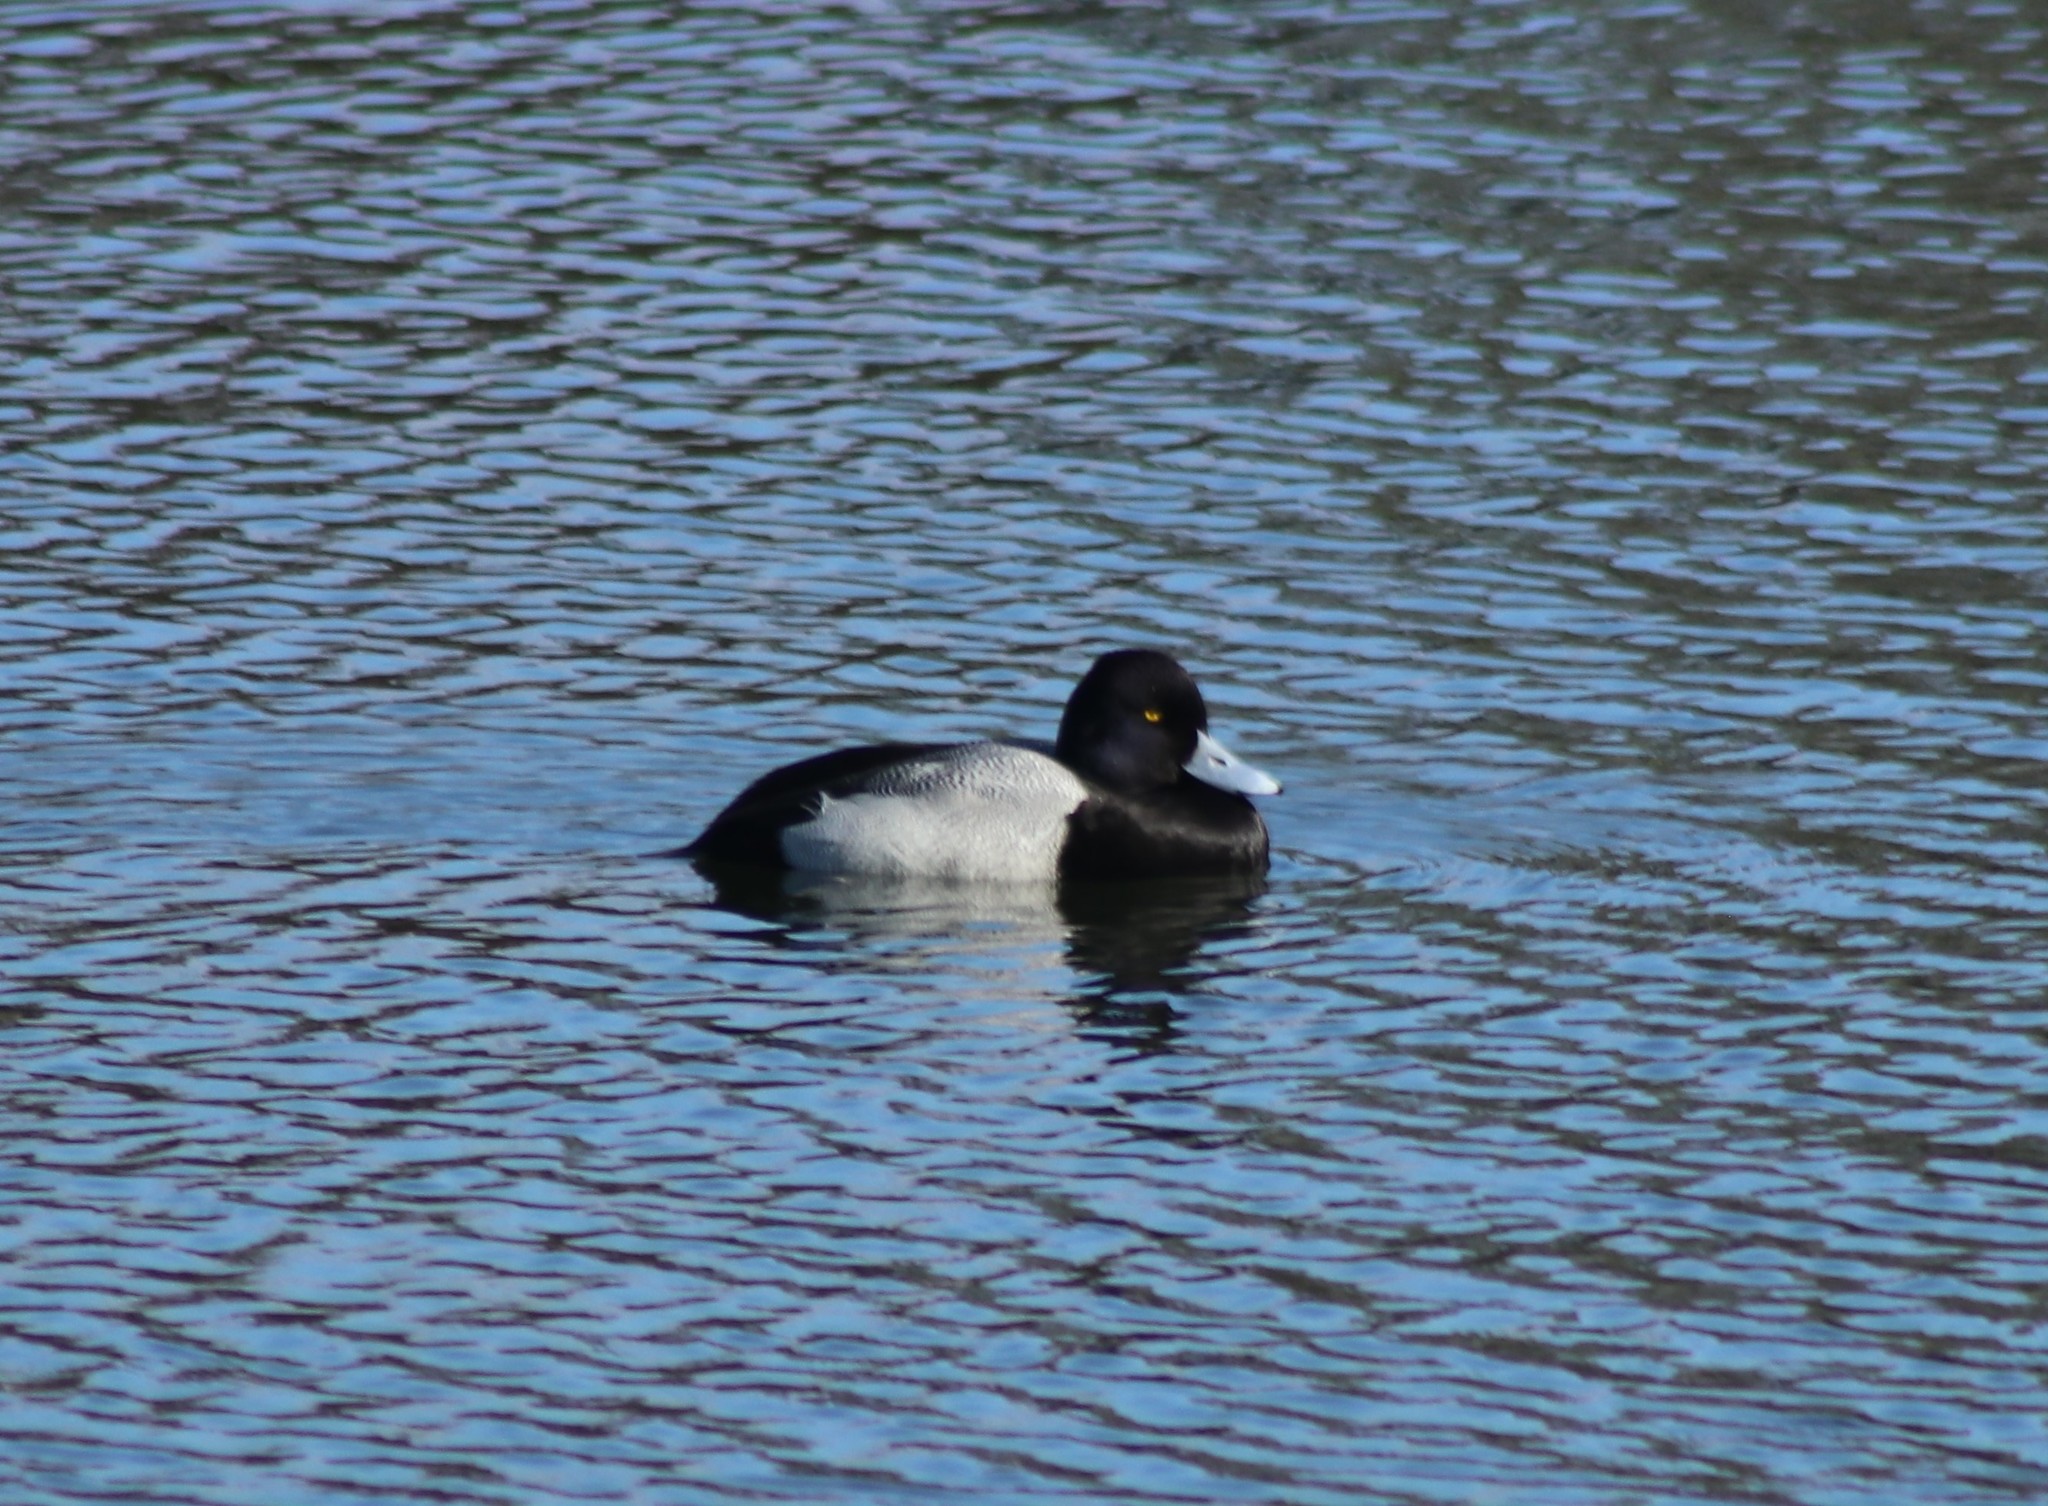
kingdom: Animalia
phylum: Chordata
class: Aves
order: Anseriformes
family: Anatidae
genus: Aythya
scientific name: Aythya affinis
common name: Lesser scaup
